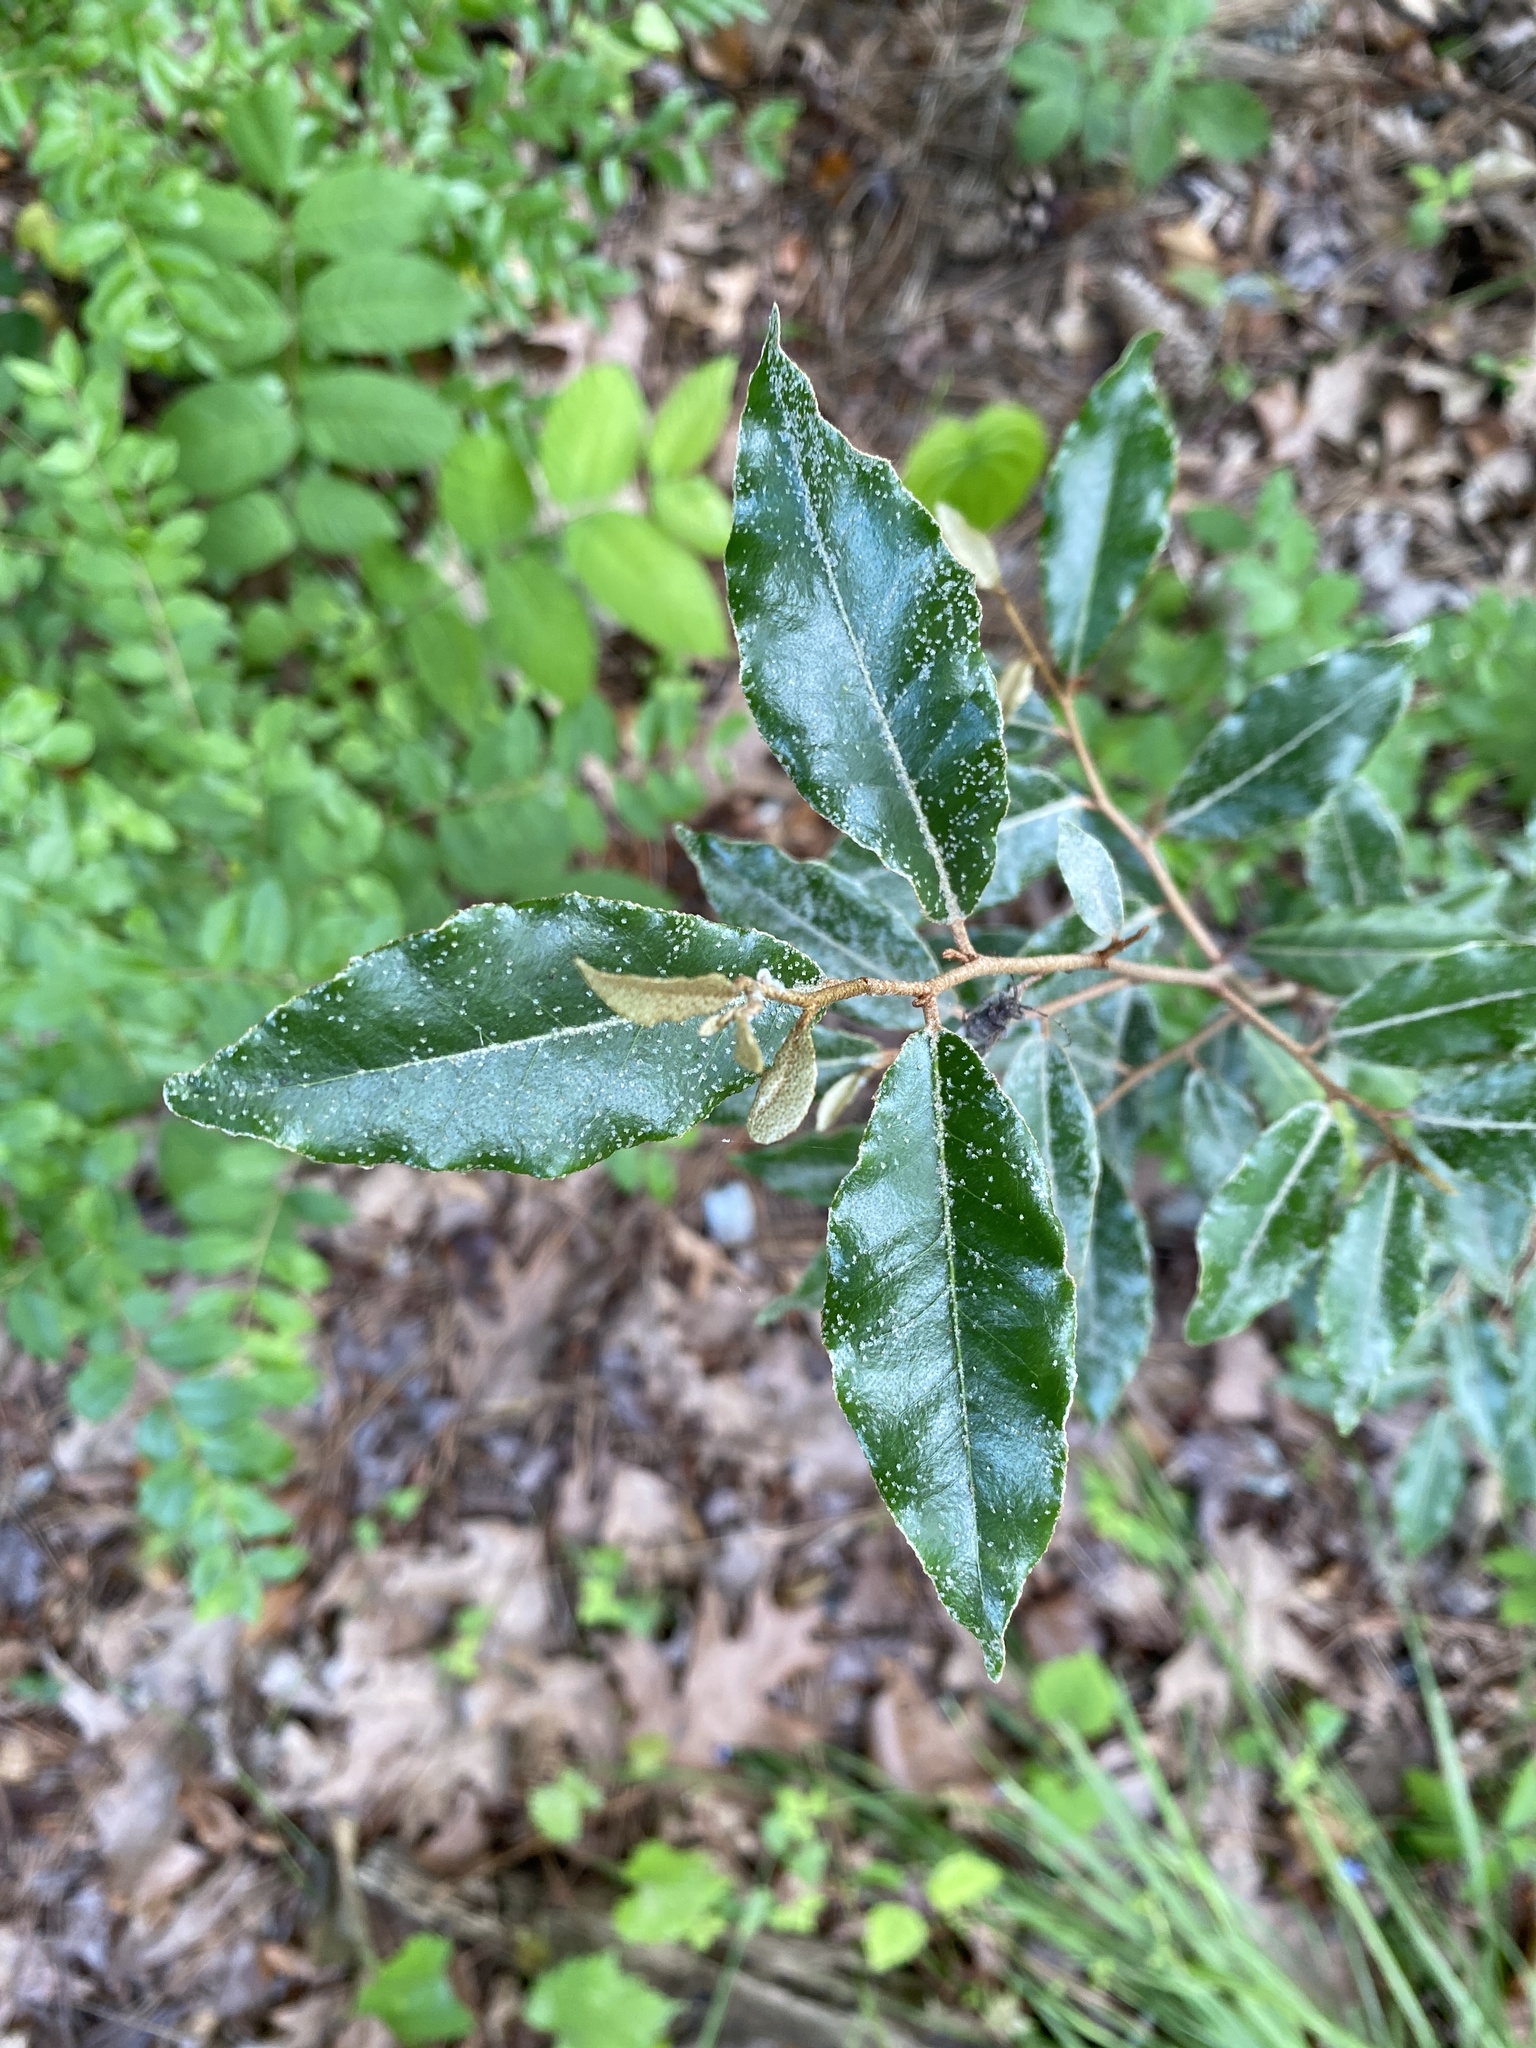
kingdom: Plantae
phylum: Tracheophyta
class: Magnoliopsida
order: Rosales
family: Elaeagnaceae
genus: Elaeagnus
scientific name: Elaeagnus pungens
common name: Spiny oleaster
